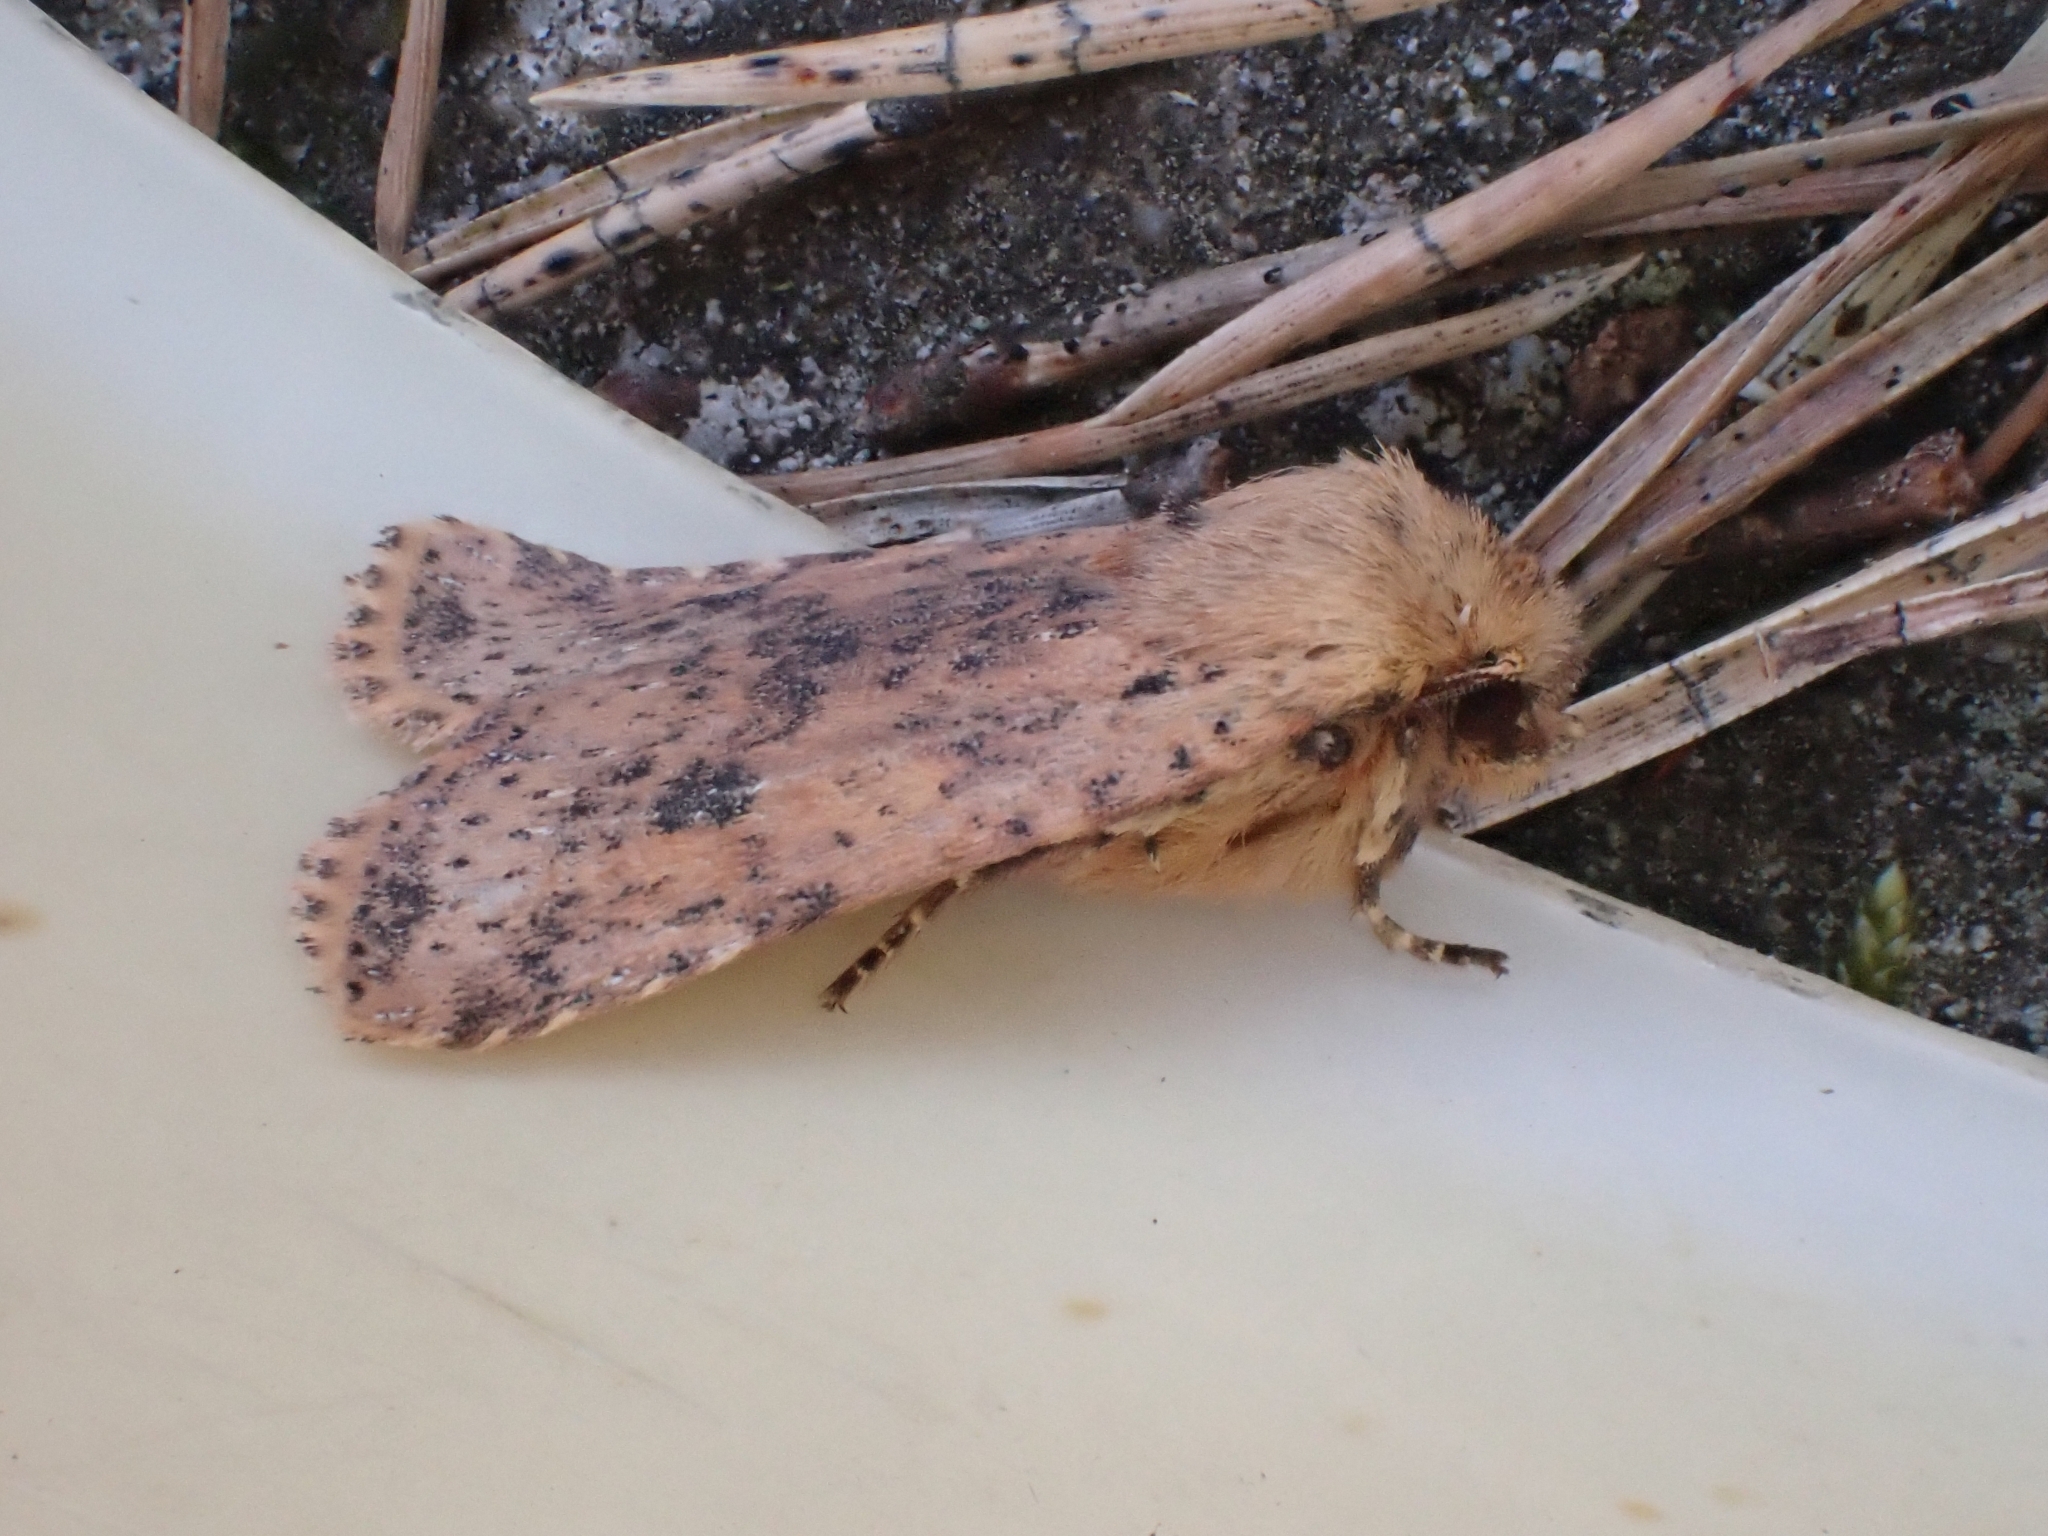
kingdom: Animalia
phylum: Arthropoda
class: Insecta
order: Lepidoptera
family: Noctuidae
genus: Conistra
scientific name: Conistra rubiginea
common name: Dotted chestnut
